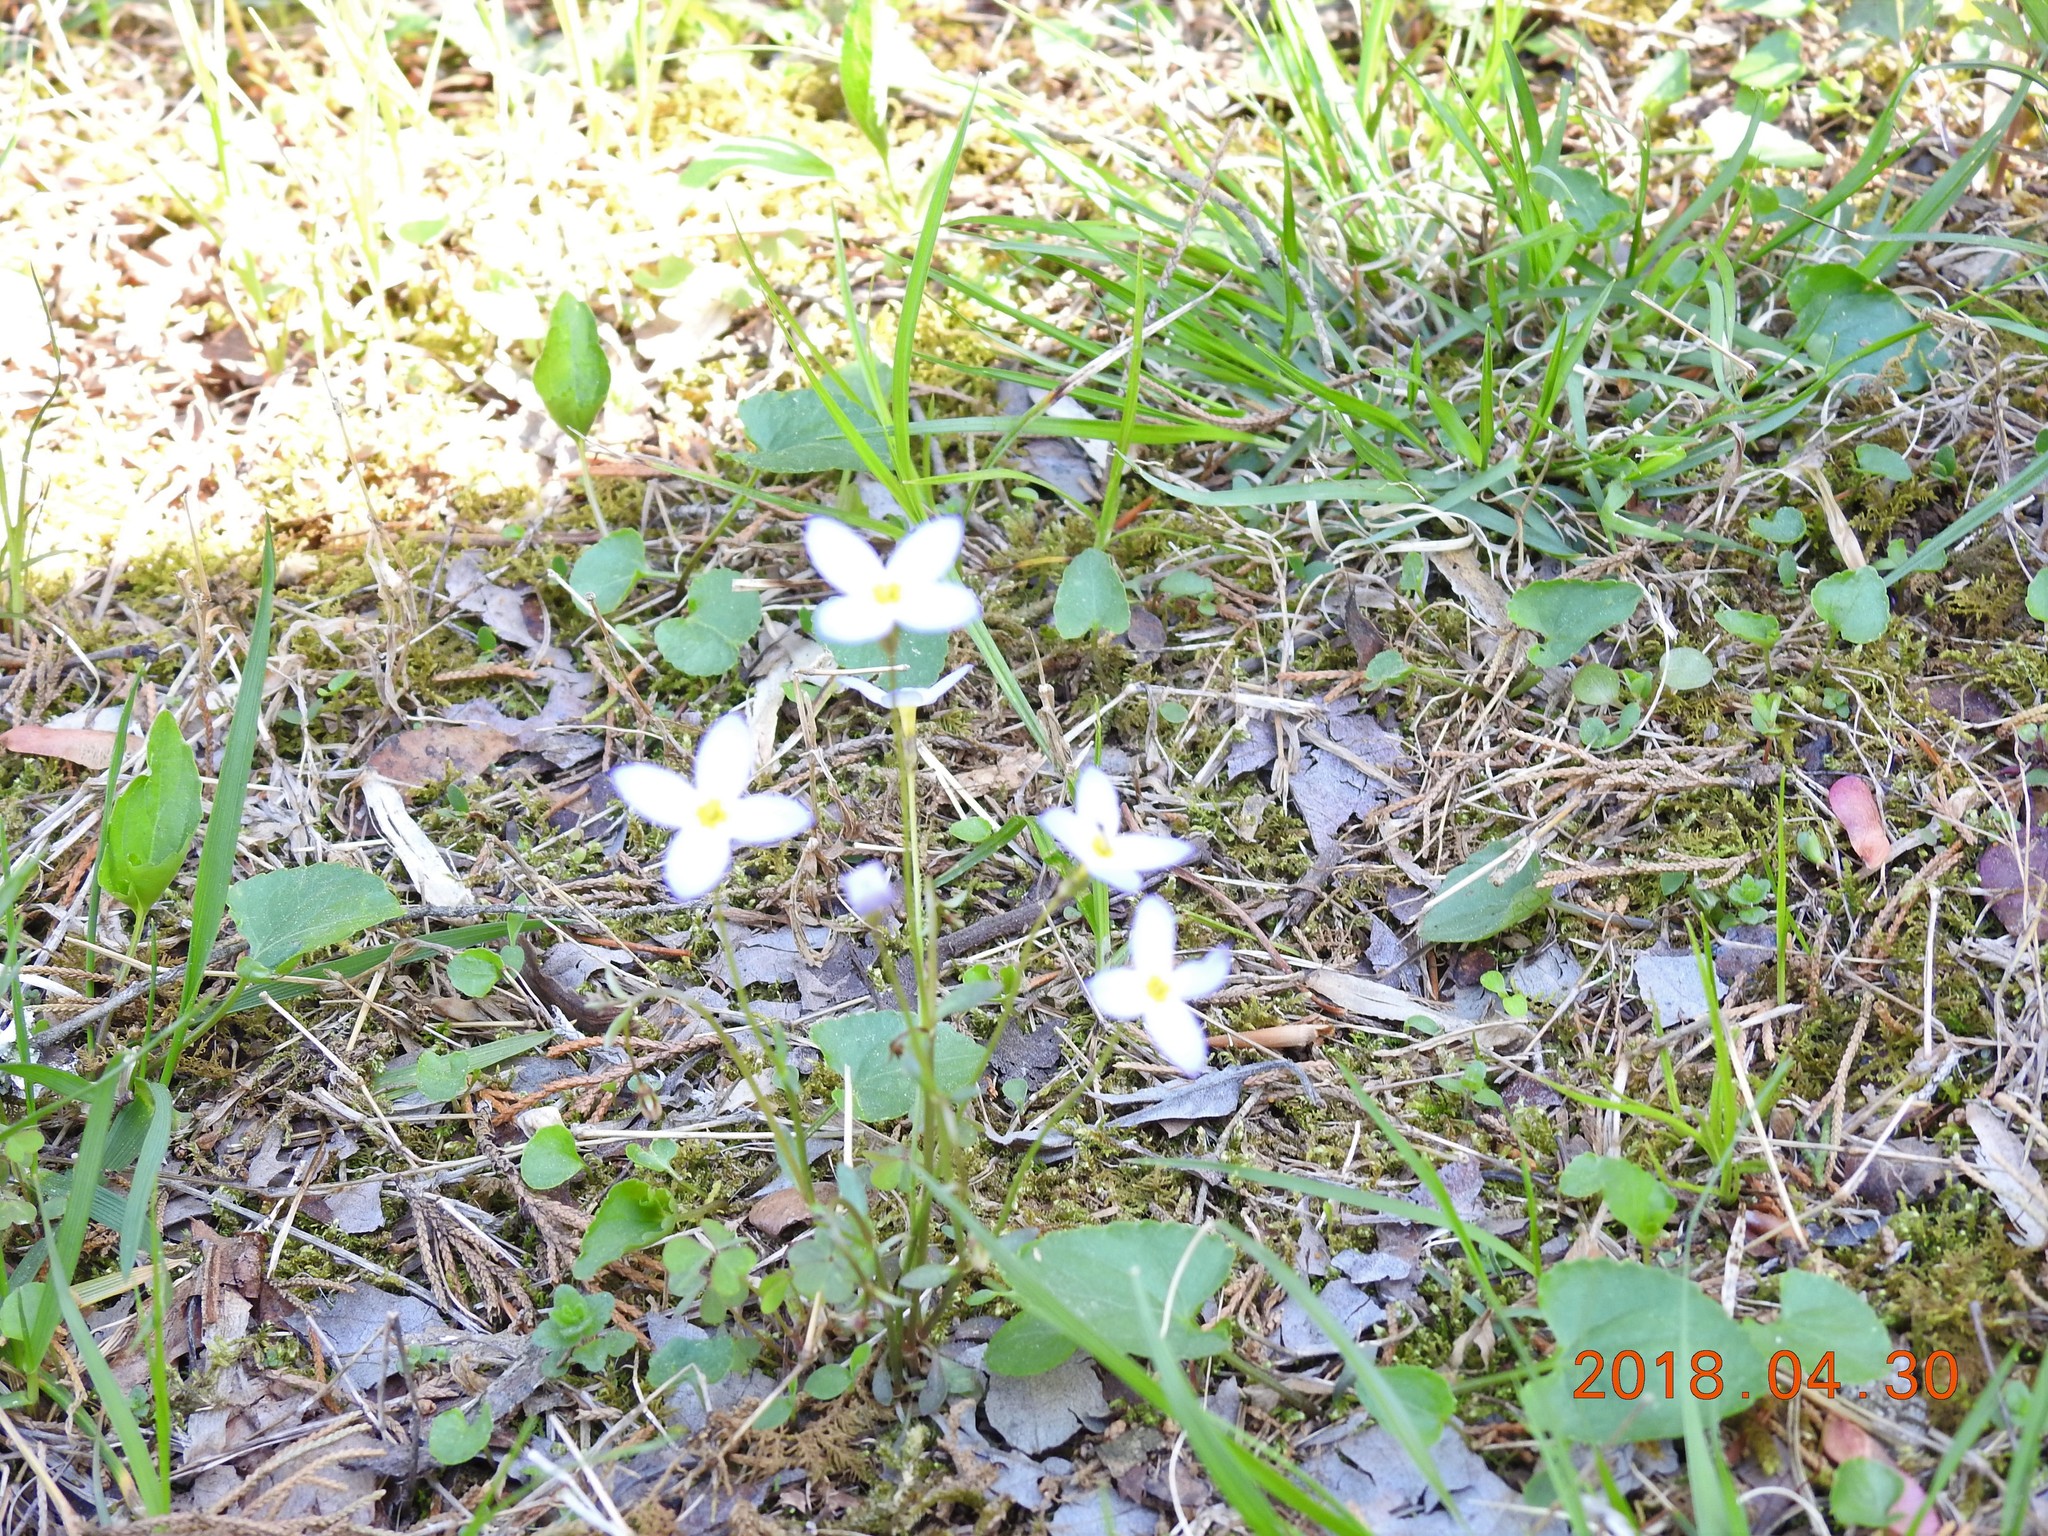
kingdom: Plantae
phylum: Tracheophyta
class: Magnoliopsida
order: Gentianales
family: Rubiaceae
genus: Houstonia
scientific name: Houstonia caerulea
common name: Bluets
